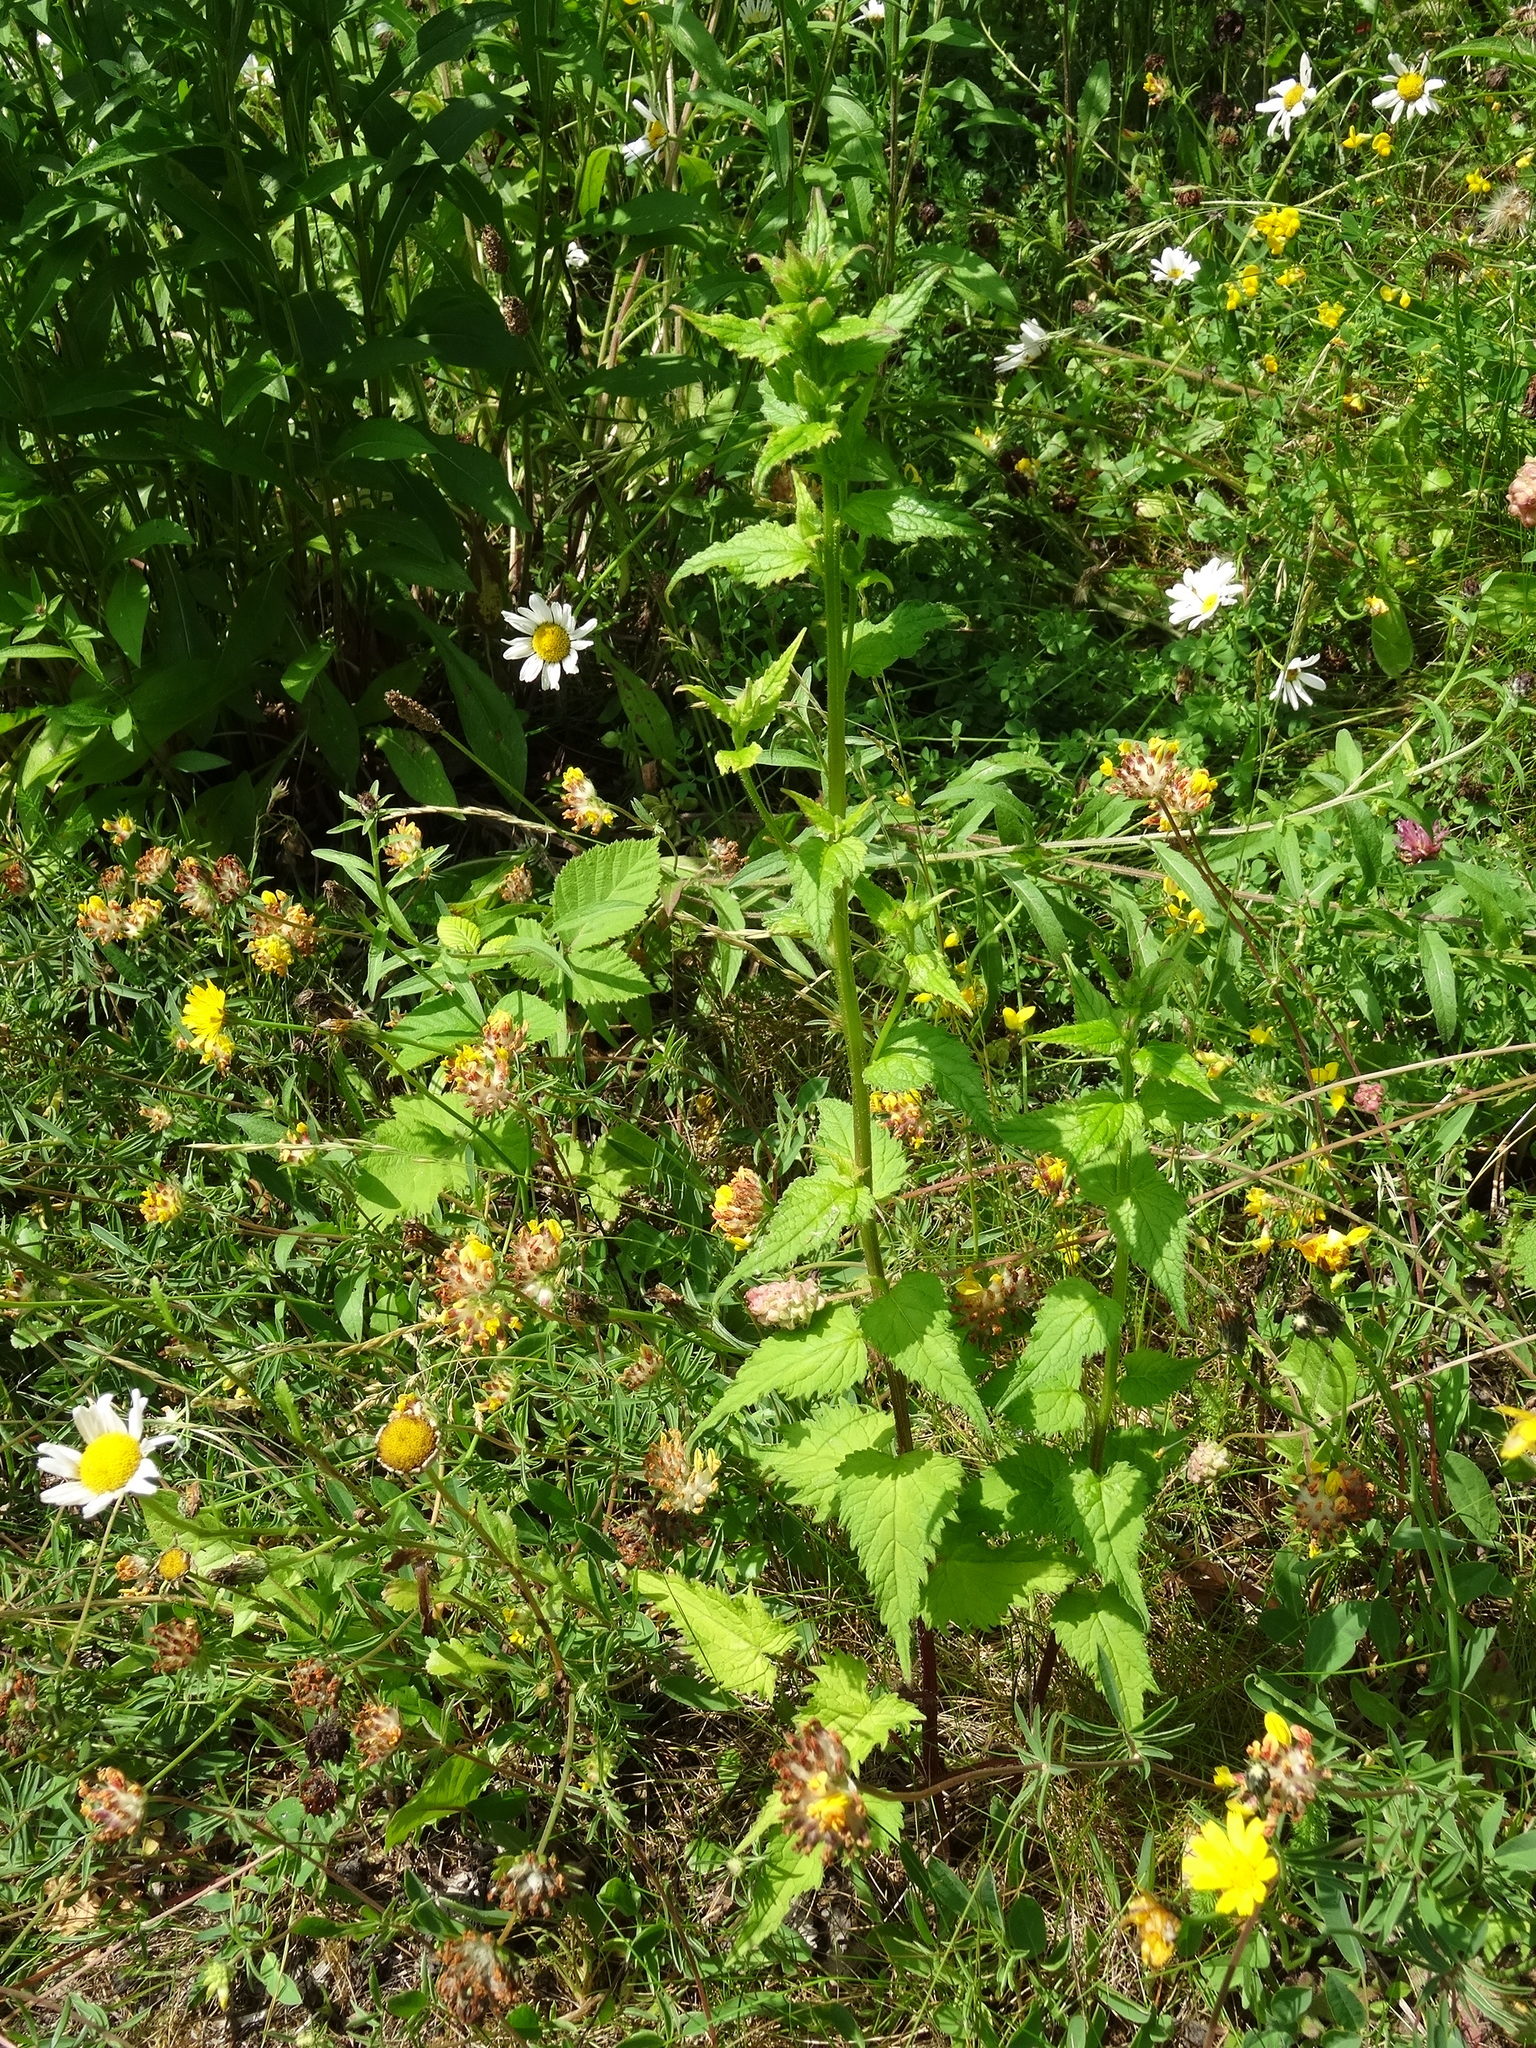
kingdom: Plantae
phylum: Tracheophyta
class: Magnoliopsida
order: Asterales
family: Campanulaceae
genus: Campanula
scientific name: Campanula trachelium
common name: Nettle-leaved bellflower
